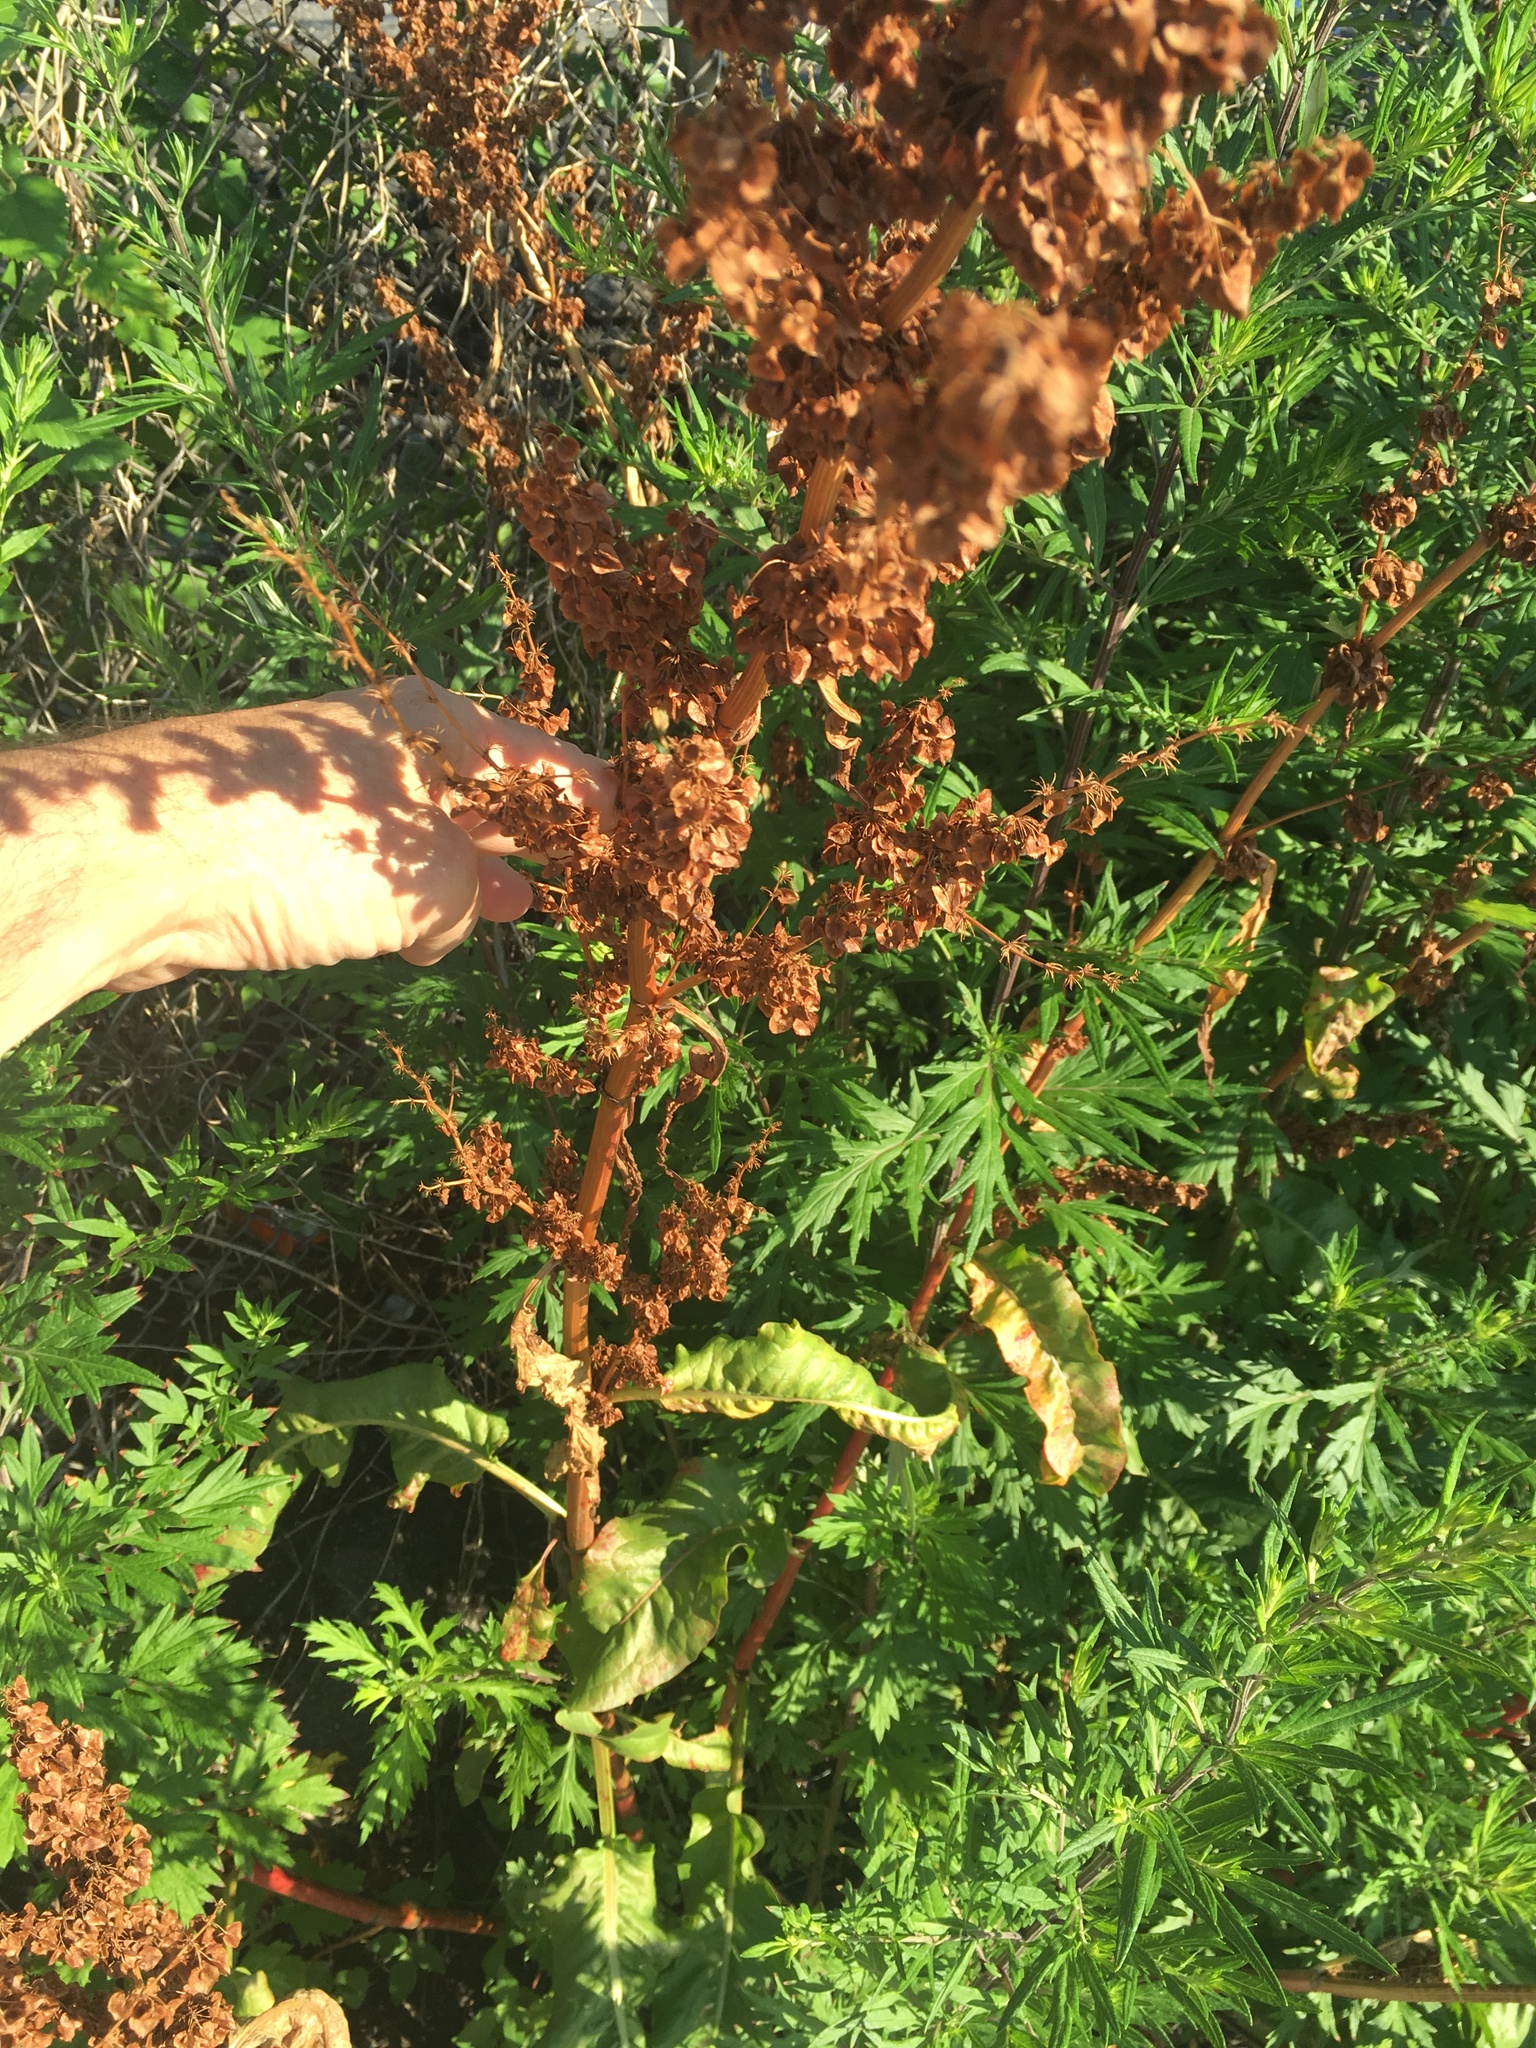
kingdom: Plantae
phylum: Tracheophyta
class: Magnoliopsida
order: Caryophyllales
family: Polygonaceae
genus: Rumex
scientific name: Rumex crispus
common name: Curled dock
